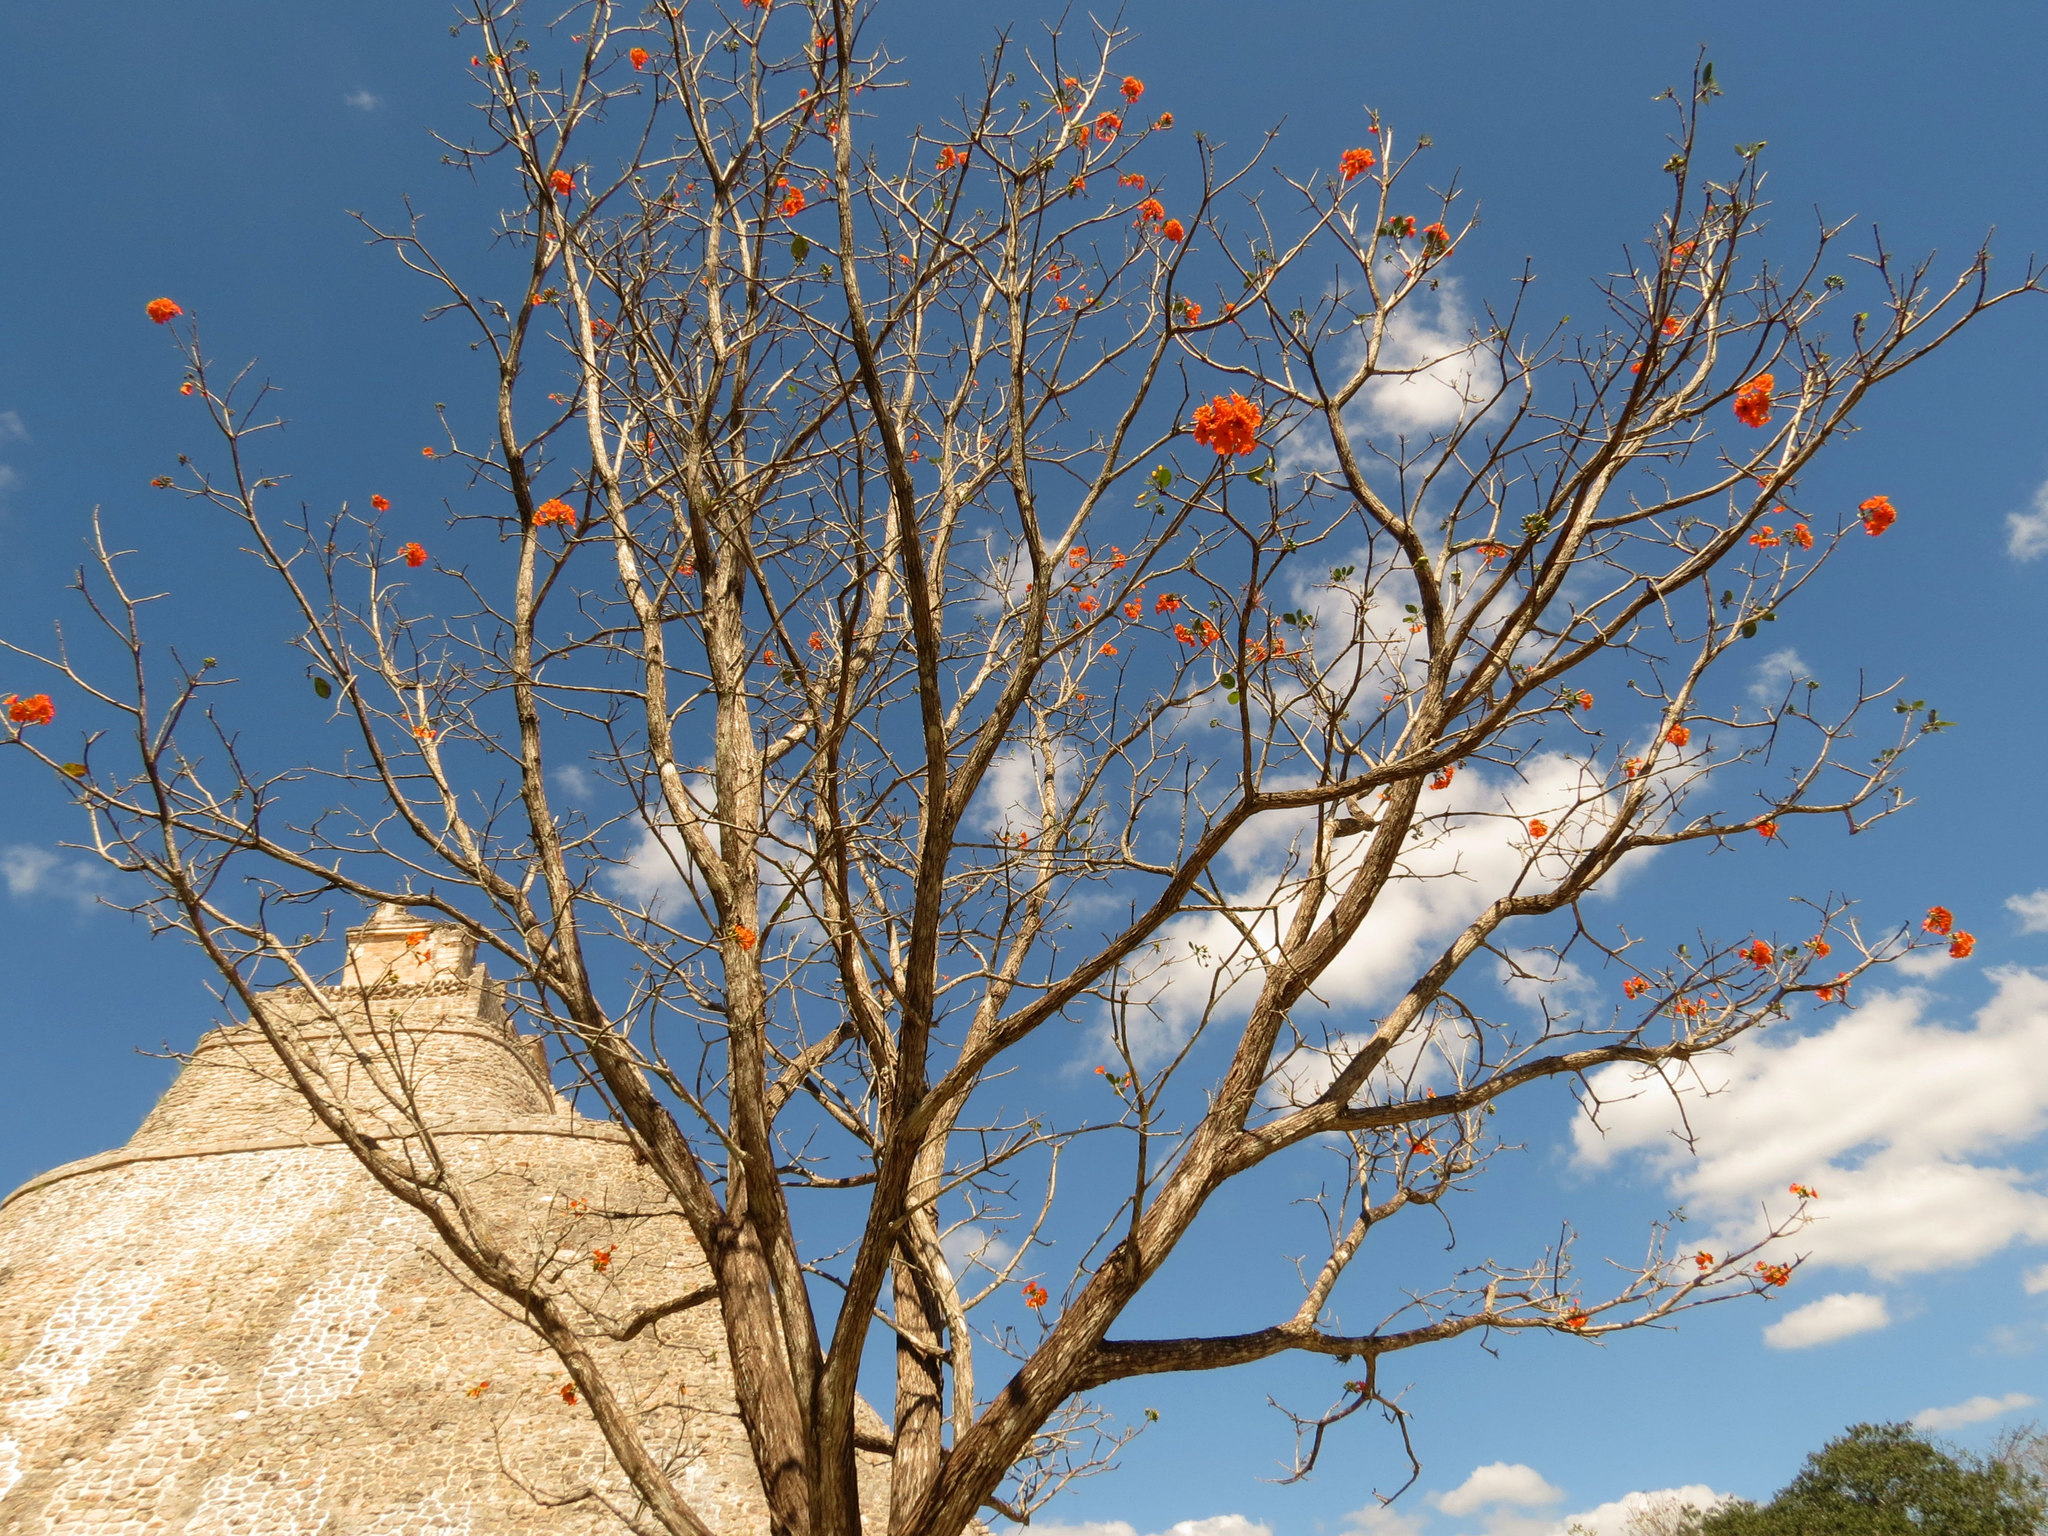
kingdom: Plantae
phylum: Tracheophyta
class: Magnoliopsida
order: Boraginales
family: Cordiaceae
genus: Cordia
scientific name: Cordia dodecandra
